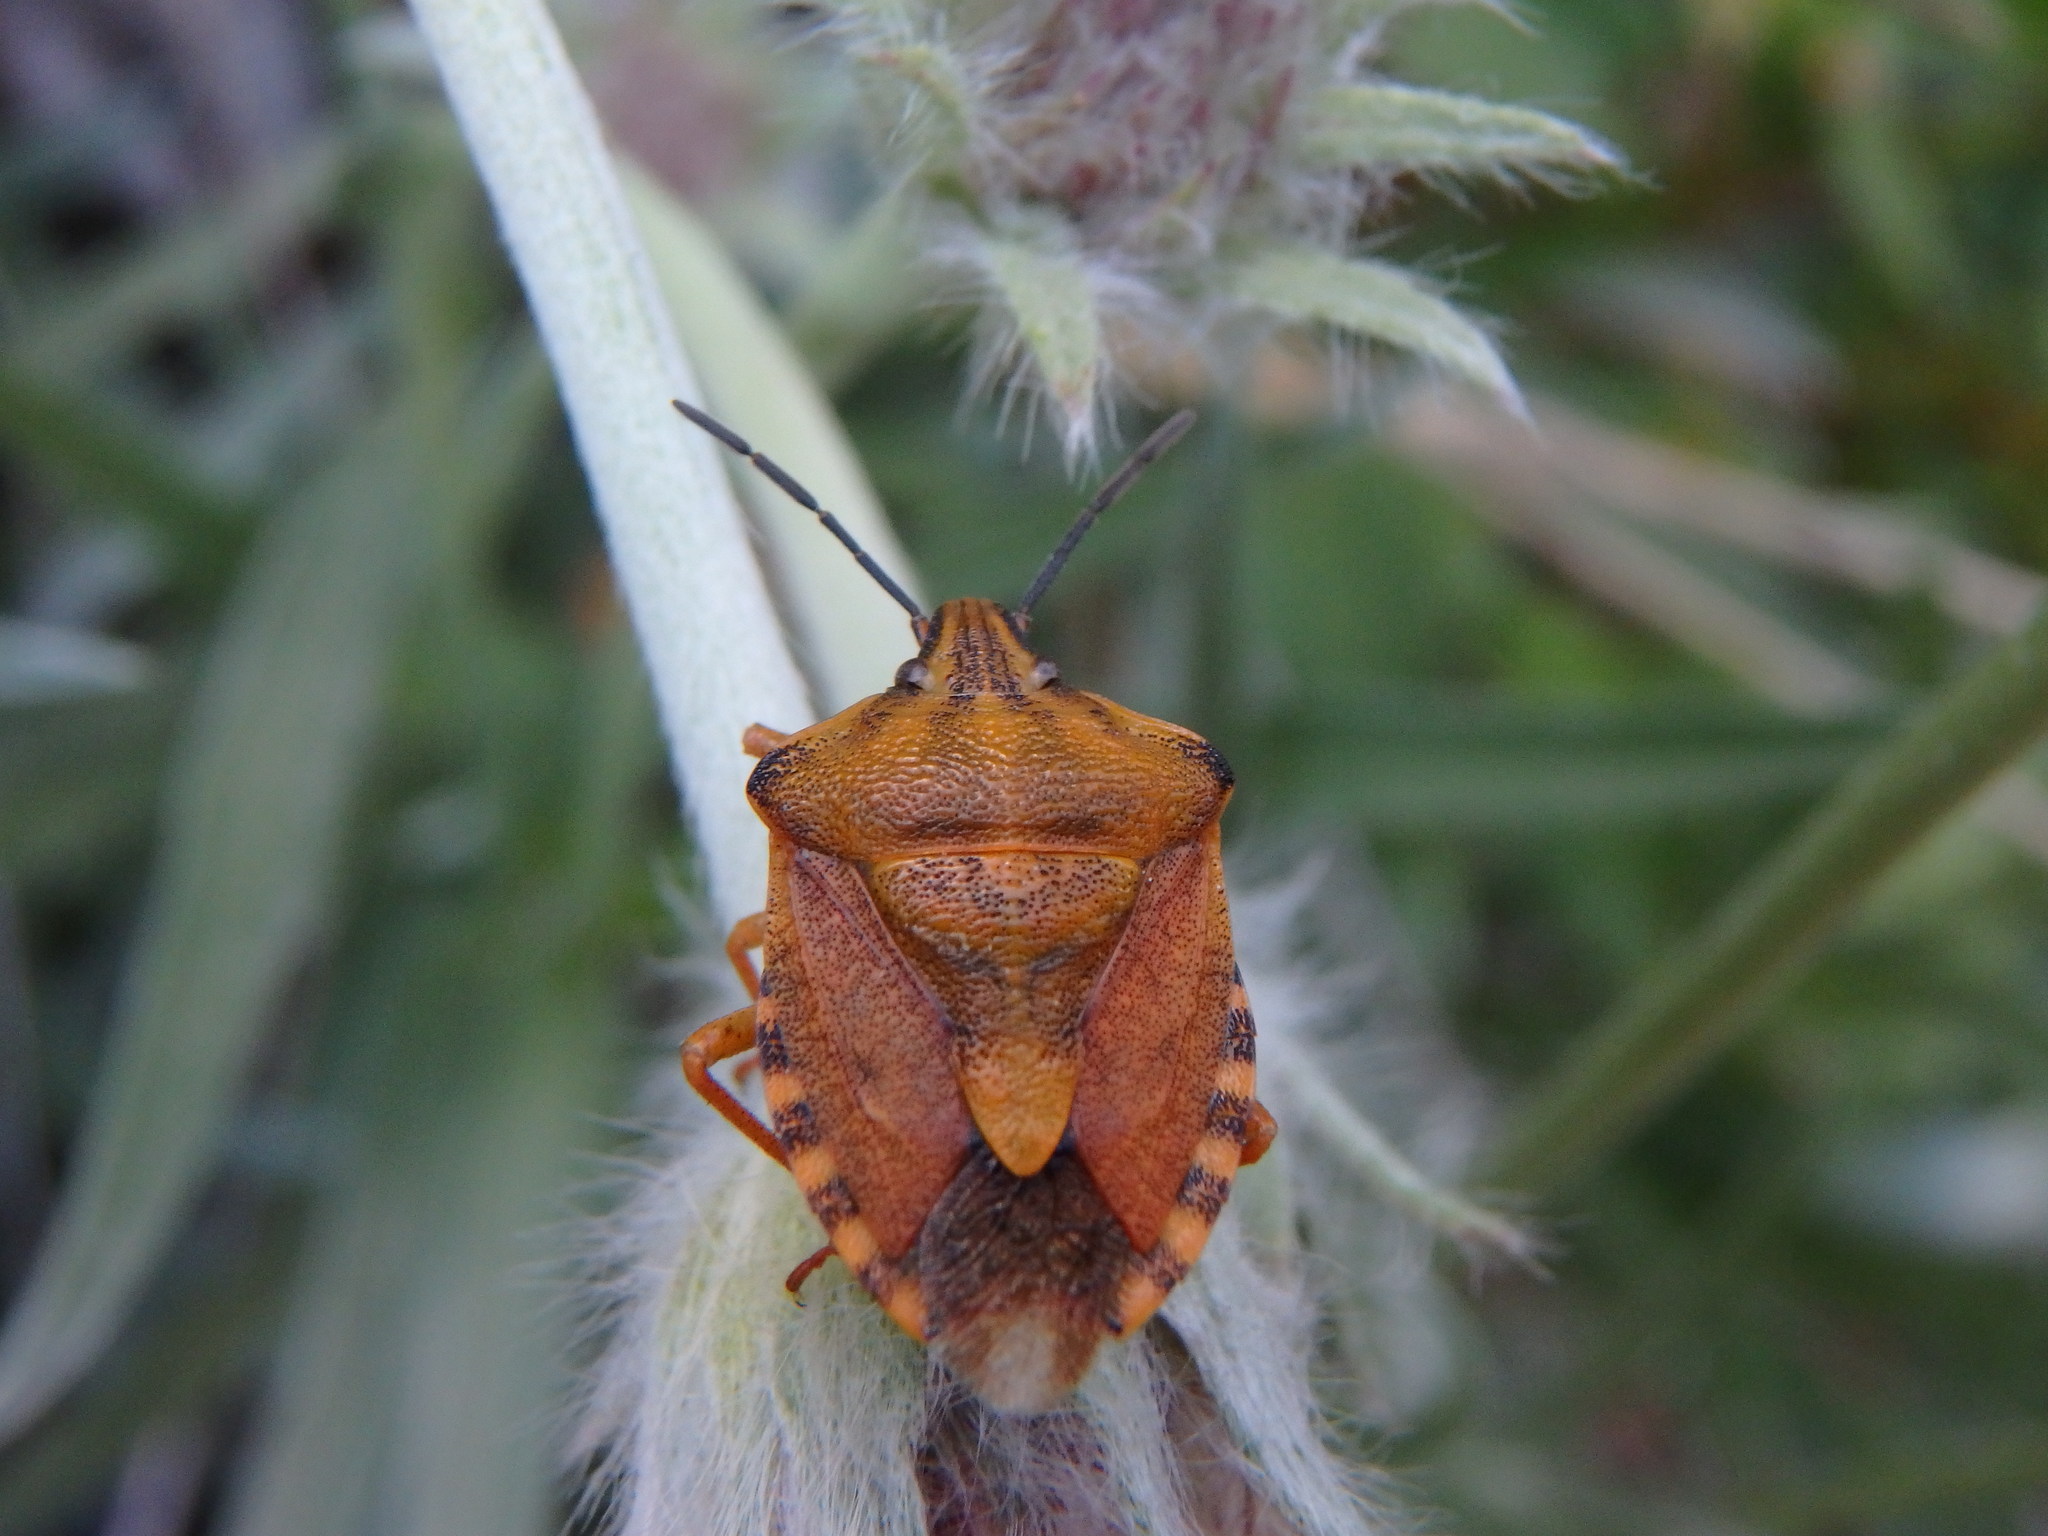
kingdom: Animalia
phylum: Arthropoda
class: Insecta
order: Hemiptera
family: Pentatomidae
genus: Carpocoris
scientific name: Carpocoris purpureipennis
